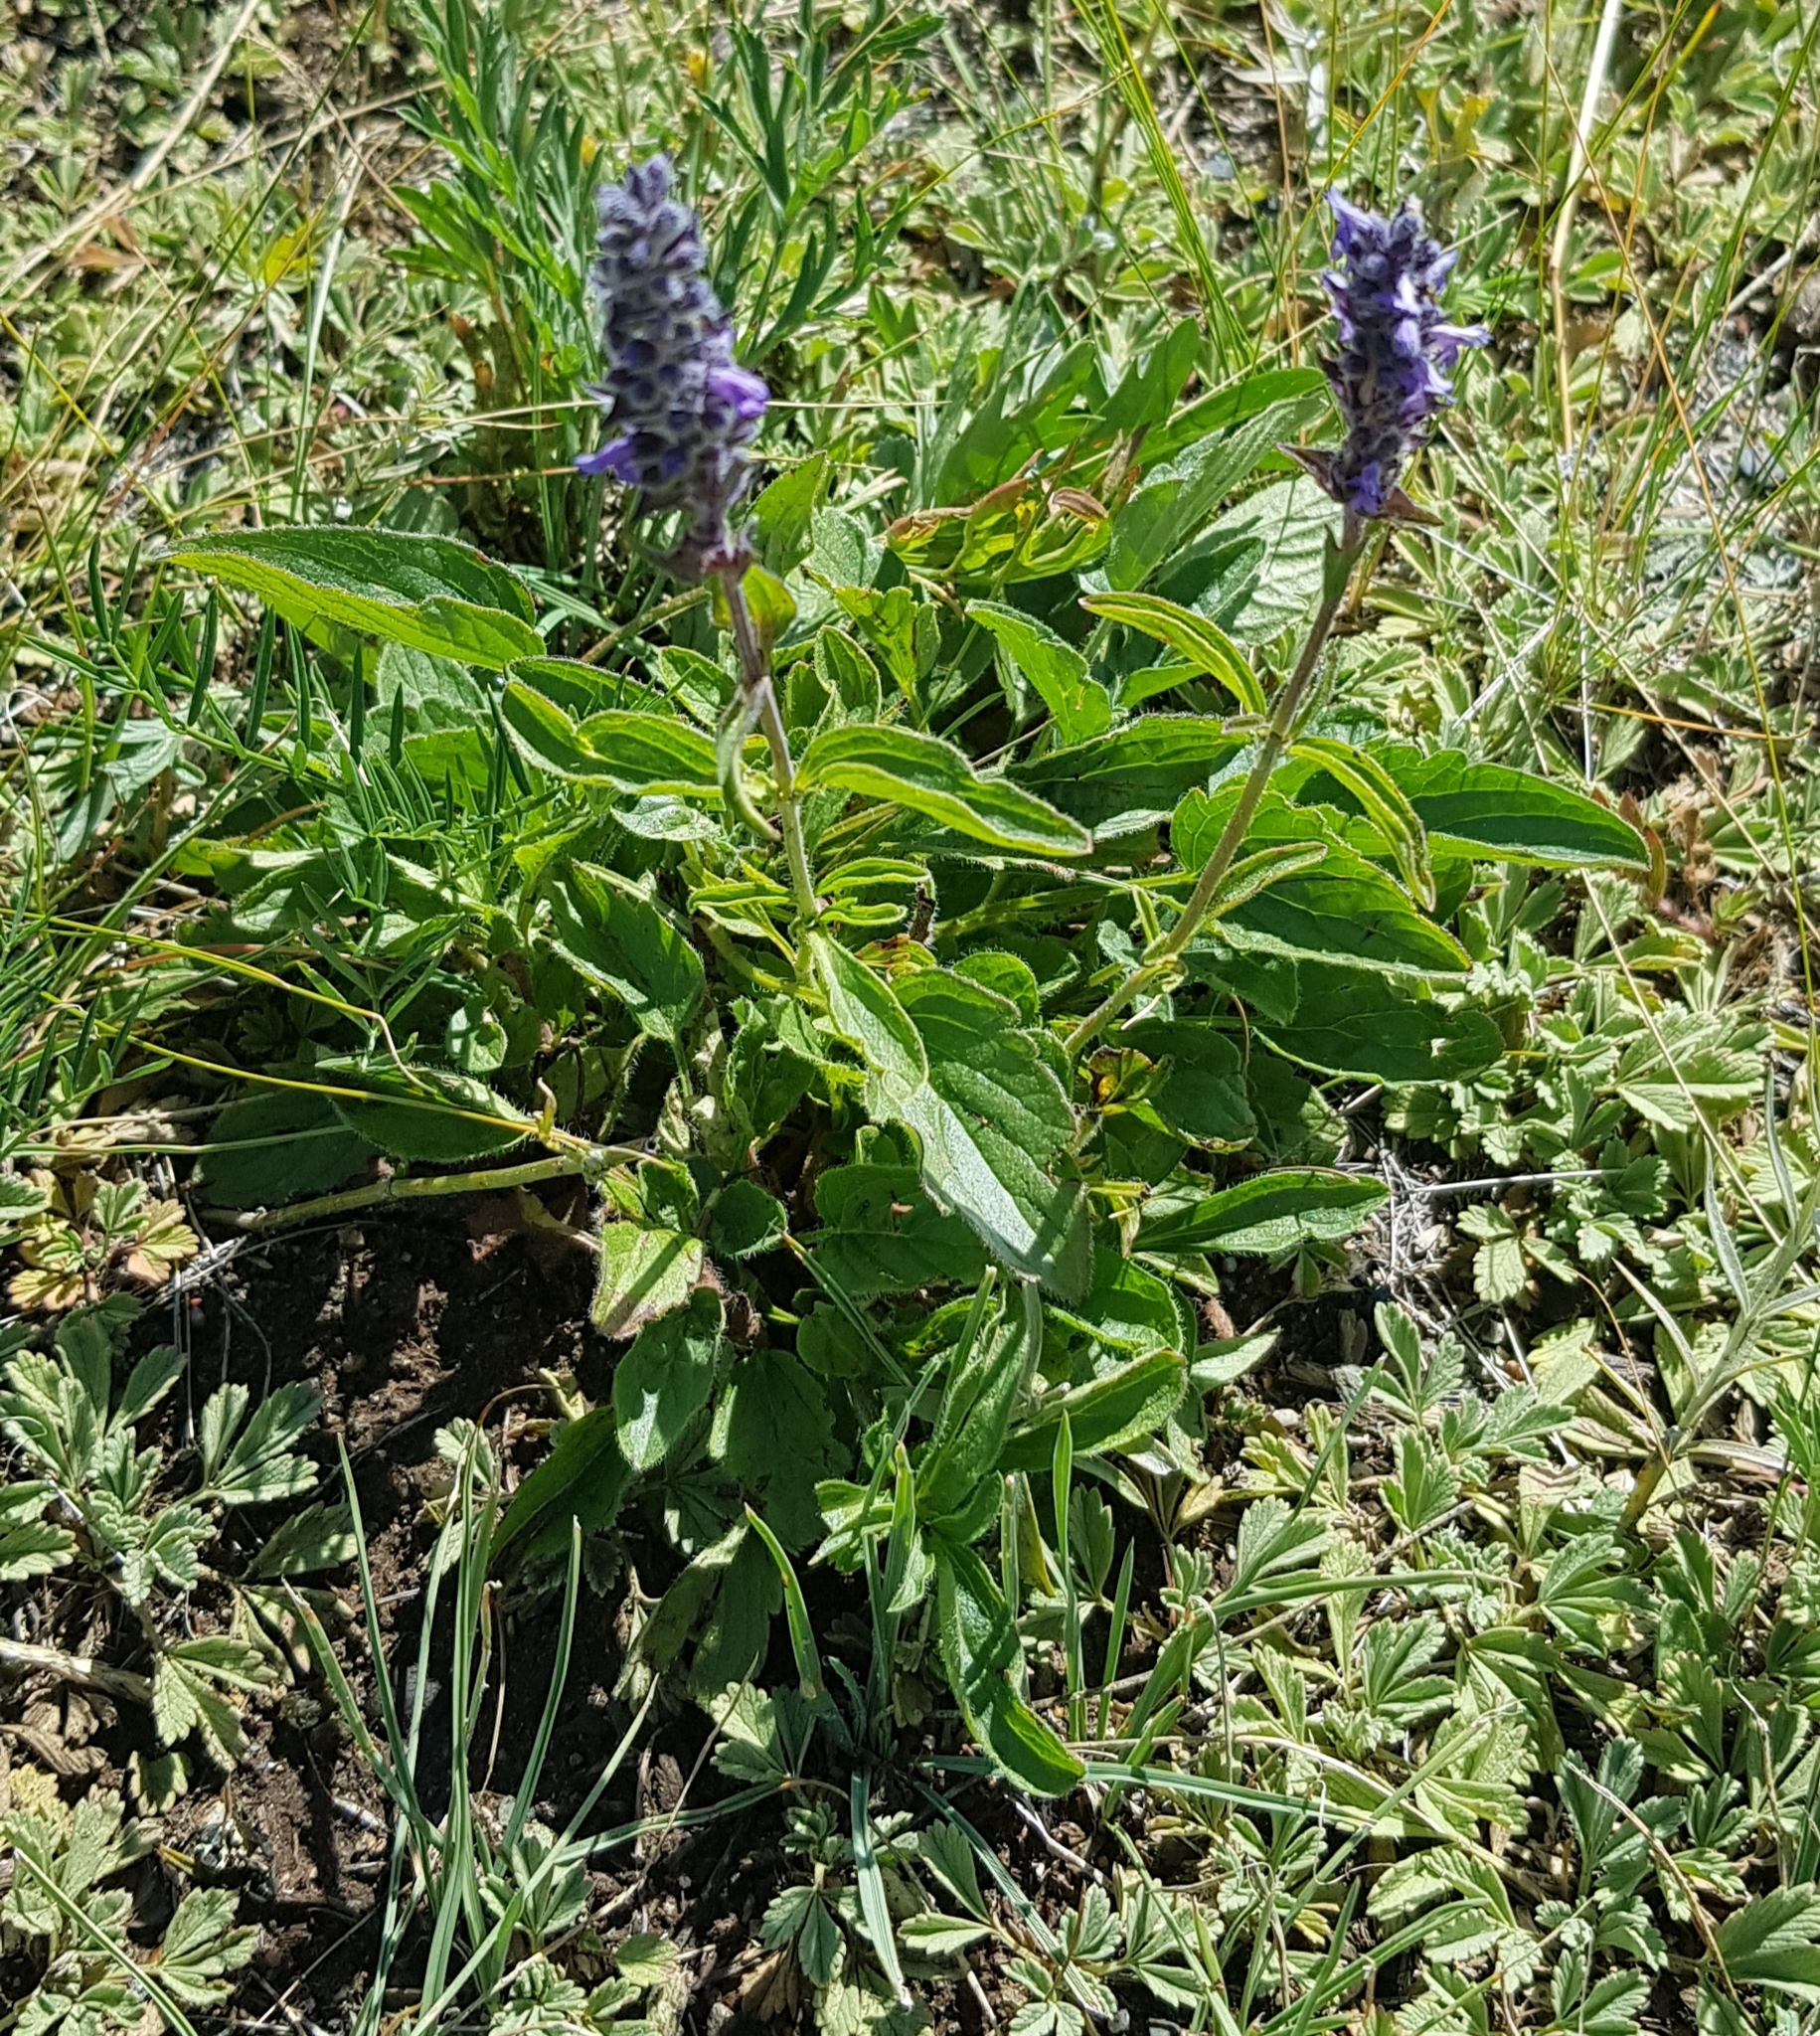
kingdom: Plantae
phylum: Tracheophyta
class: Magnoliopsida
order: Lamiales
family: Lamiaceae
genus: Nepeta
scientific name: Nepeta multifida
